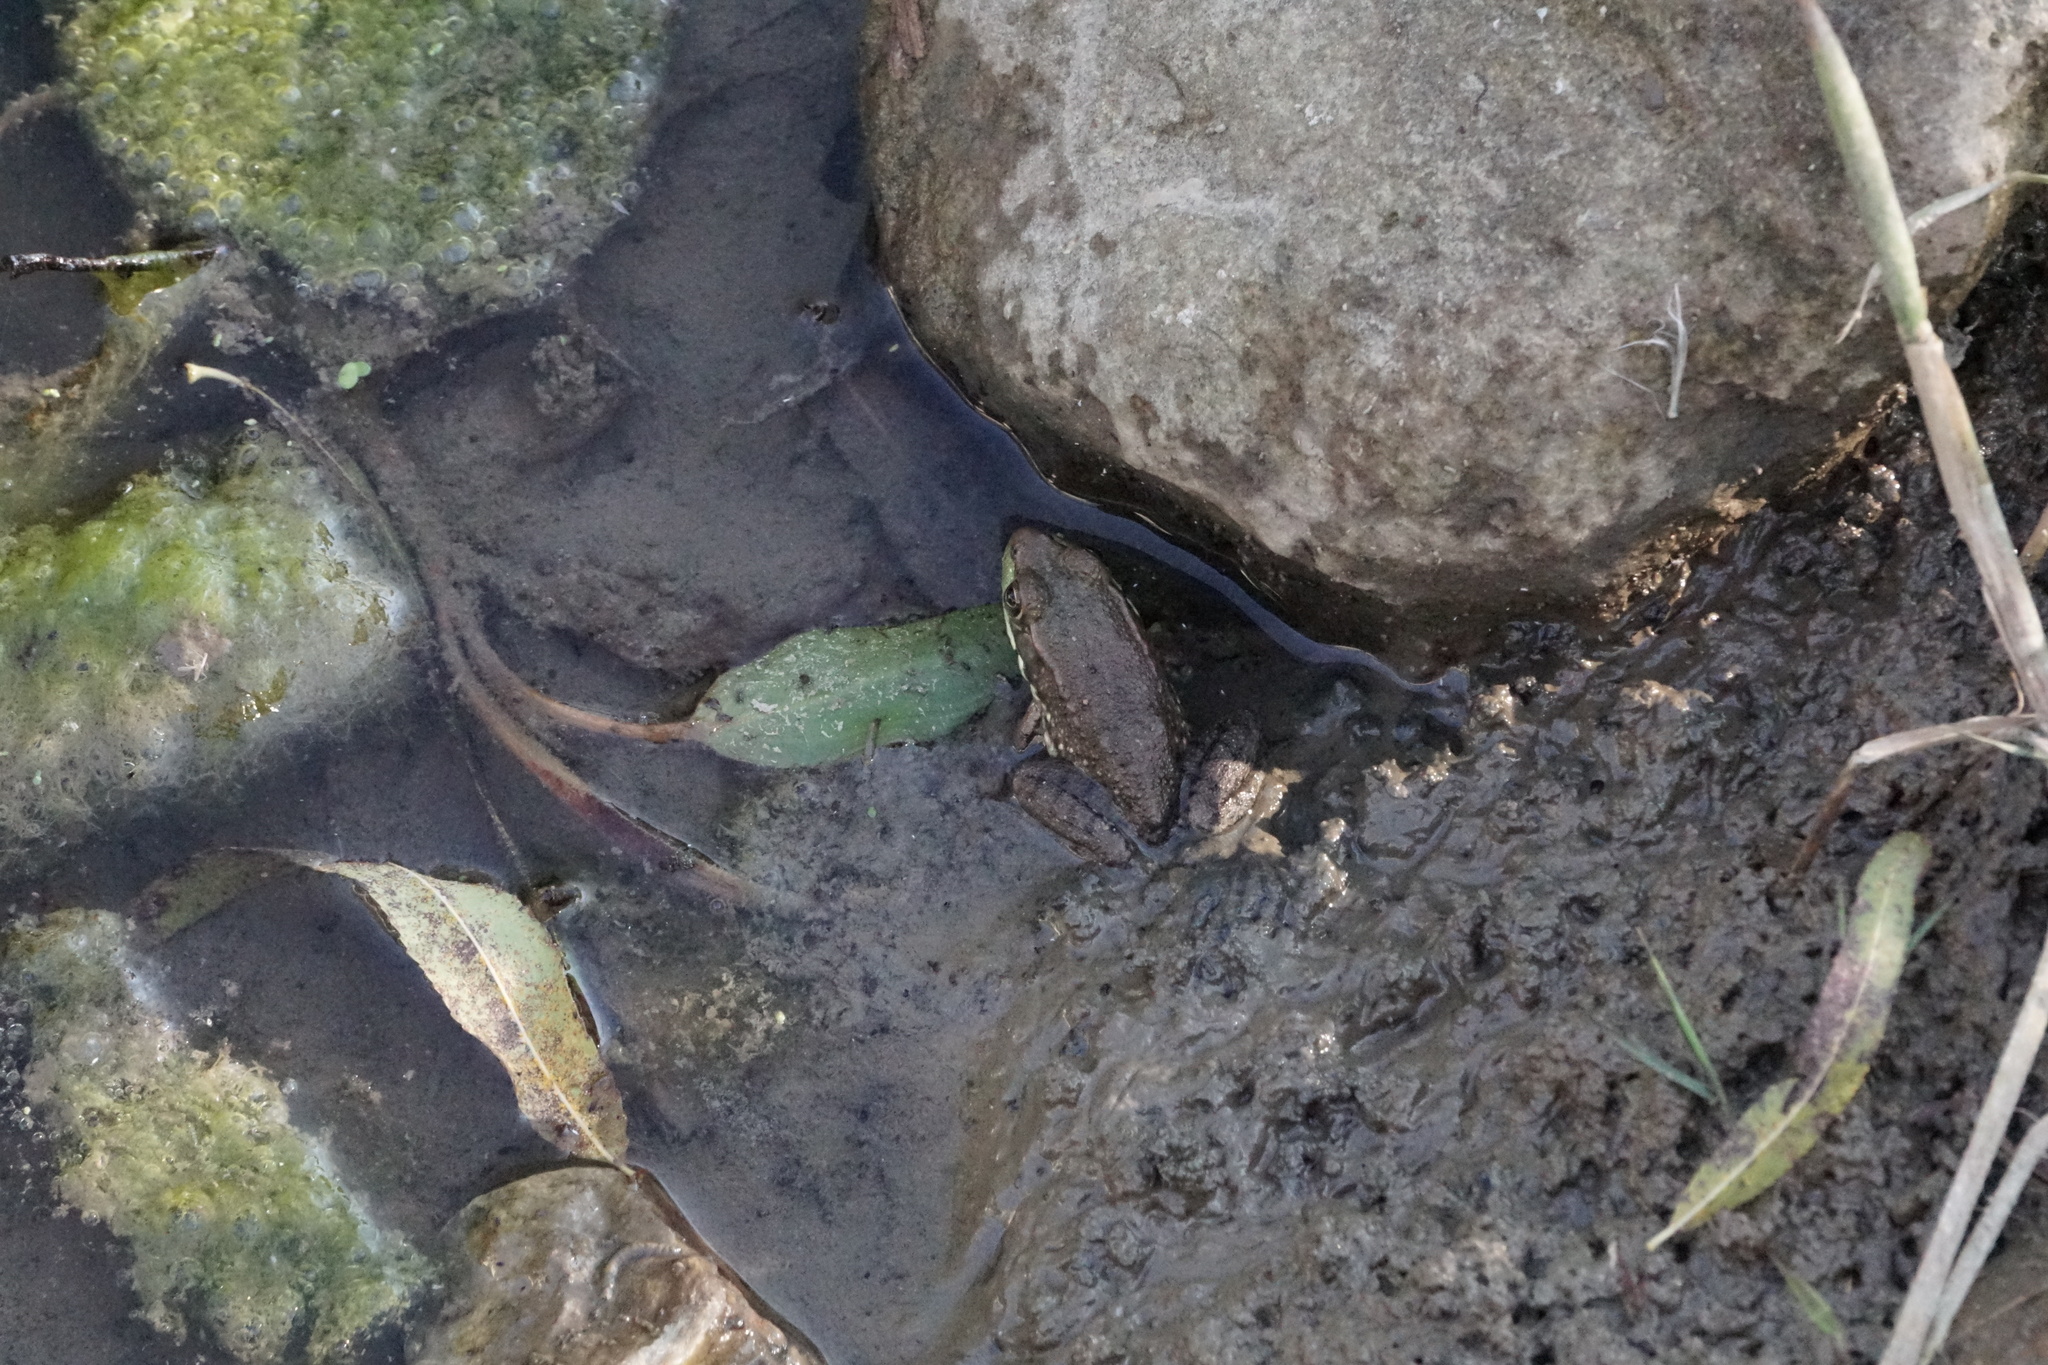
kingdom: Animalia
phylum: Chordata
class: Amphibia
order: Anura
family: Ranidae
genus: Lithobates
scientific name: Lithobates clamitans
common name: Green frog
